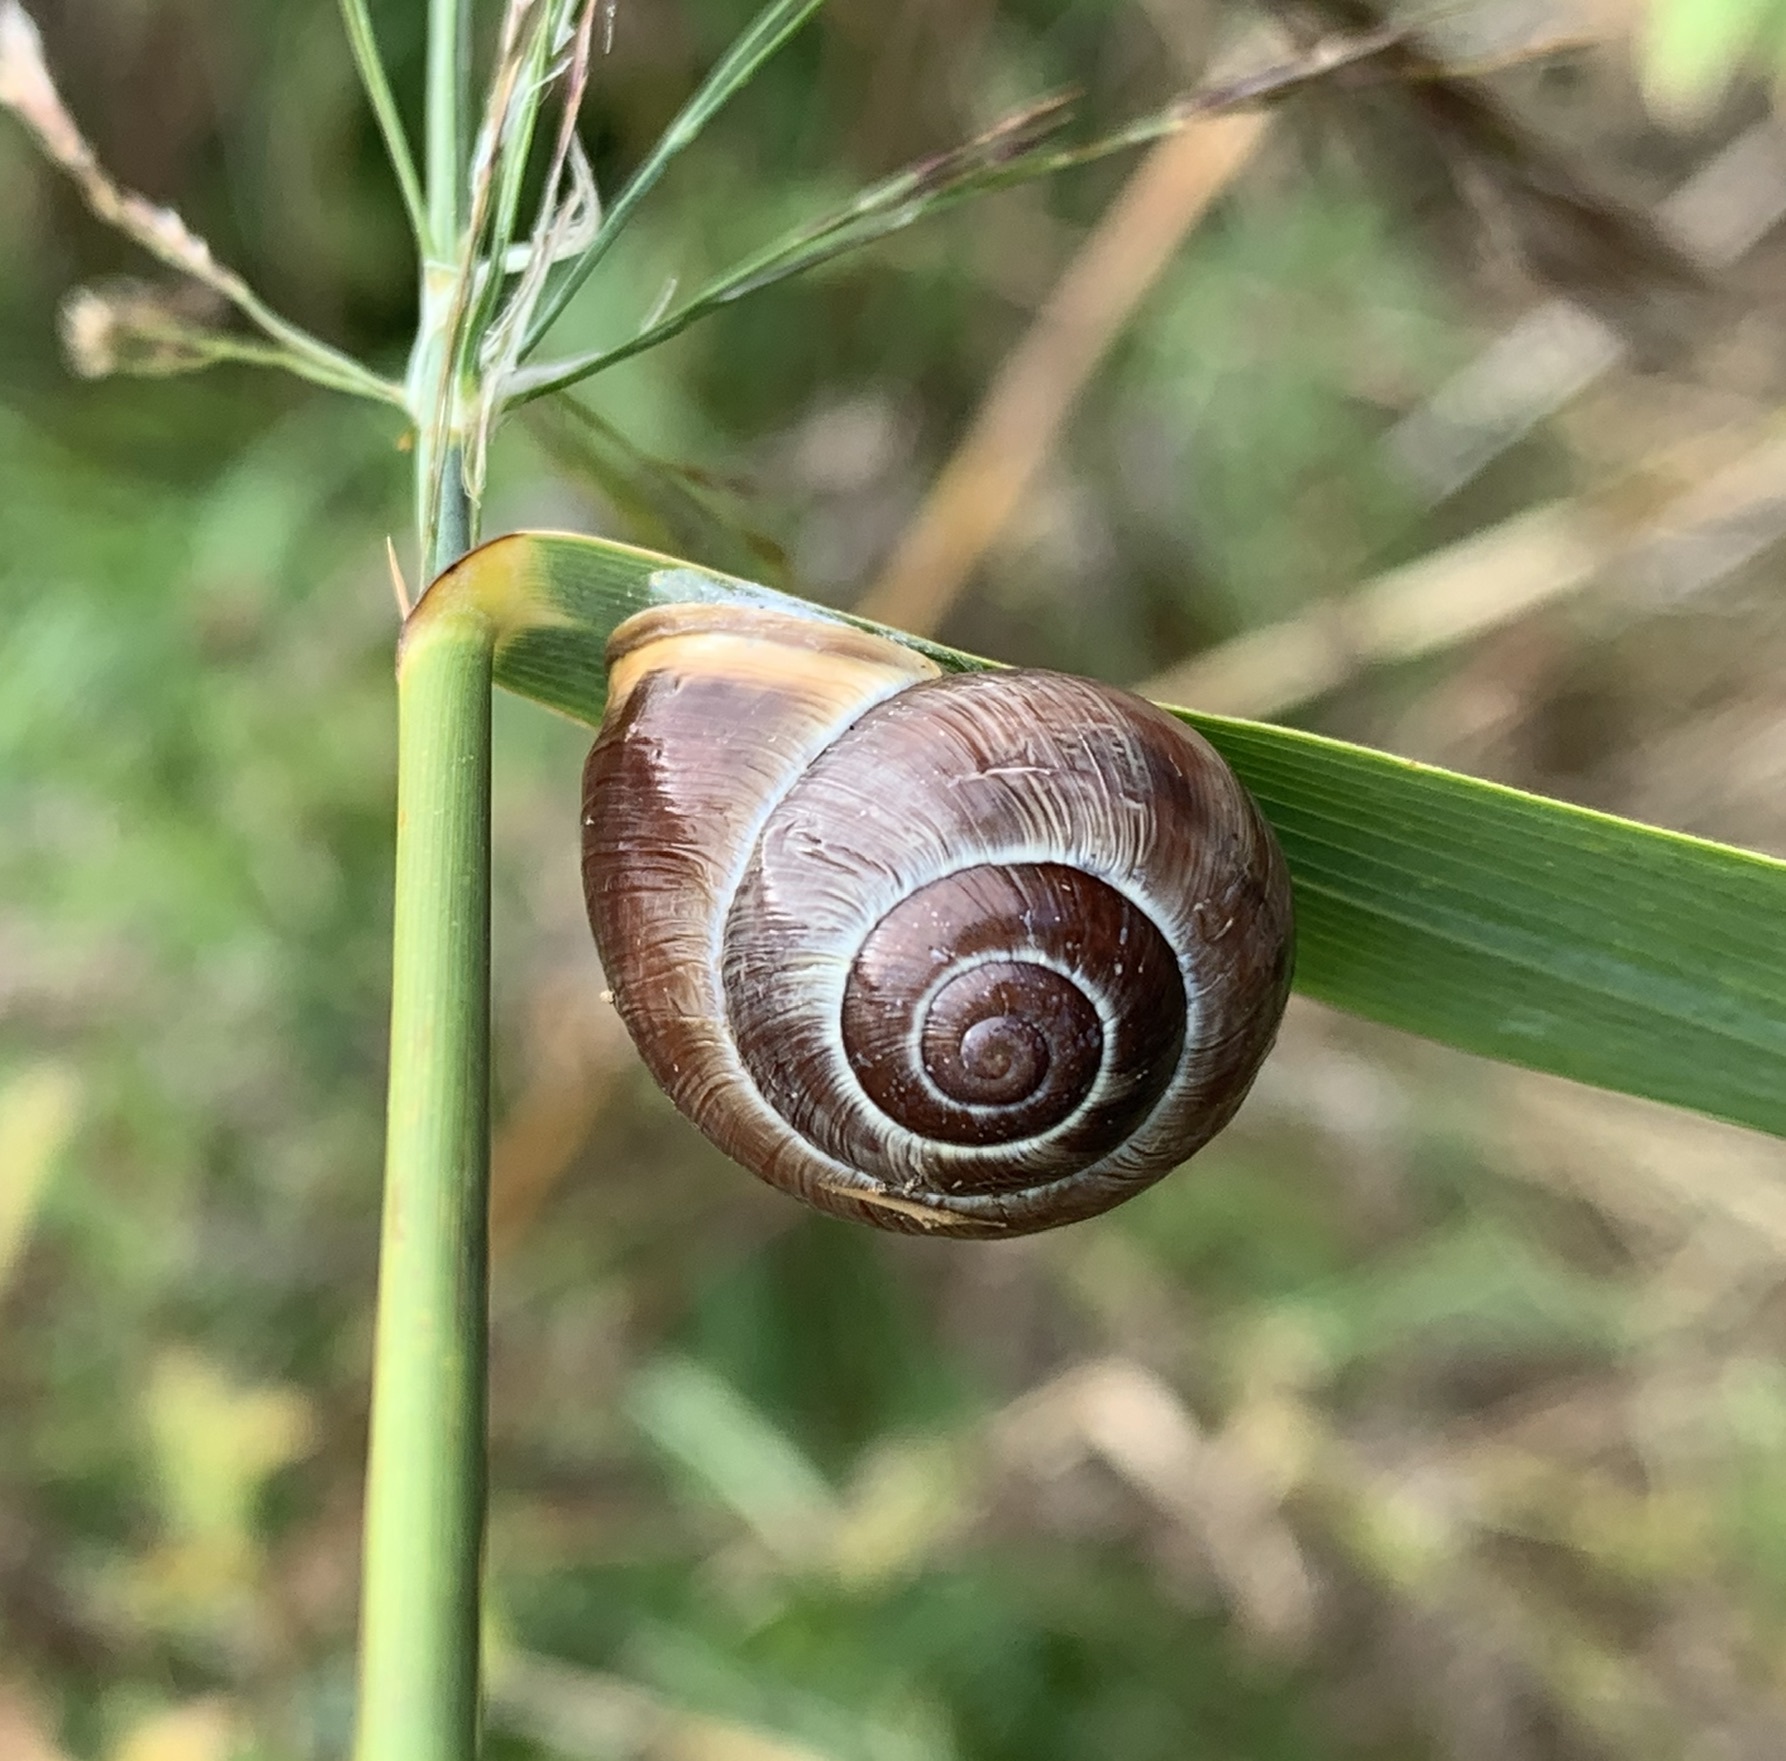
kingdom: Animalia
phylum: Mollusca
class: Gastropoda
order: Stylommatophora
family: Helicidae
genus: Cepaea
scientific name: Cepaea nemoralis
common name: Grovesnail
